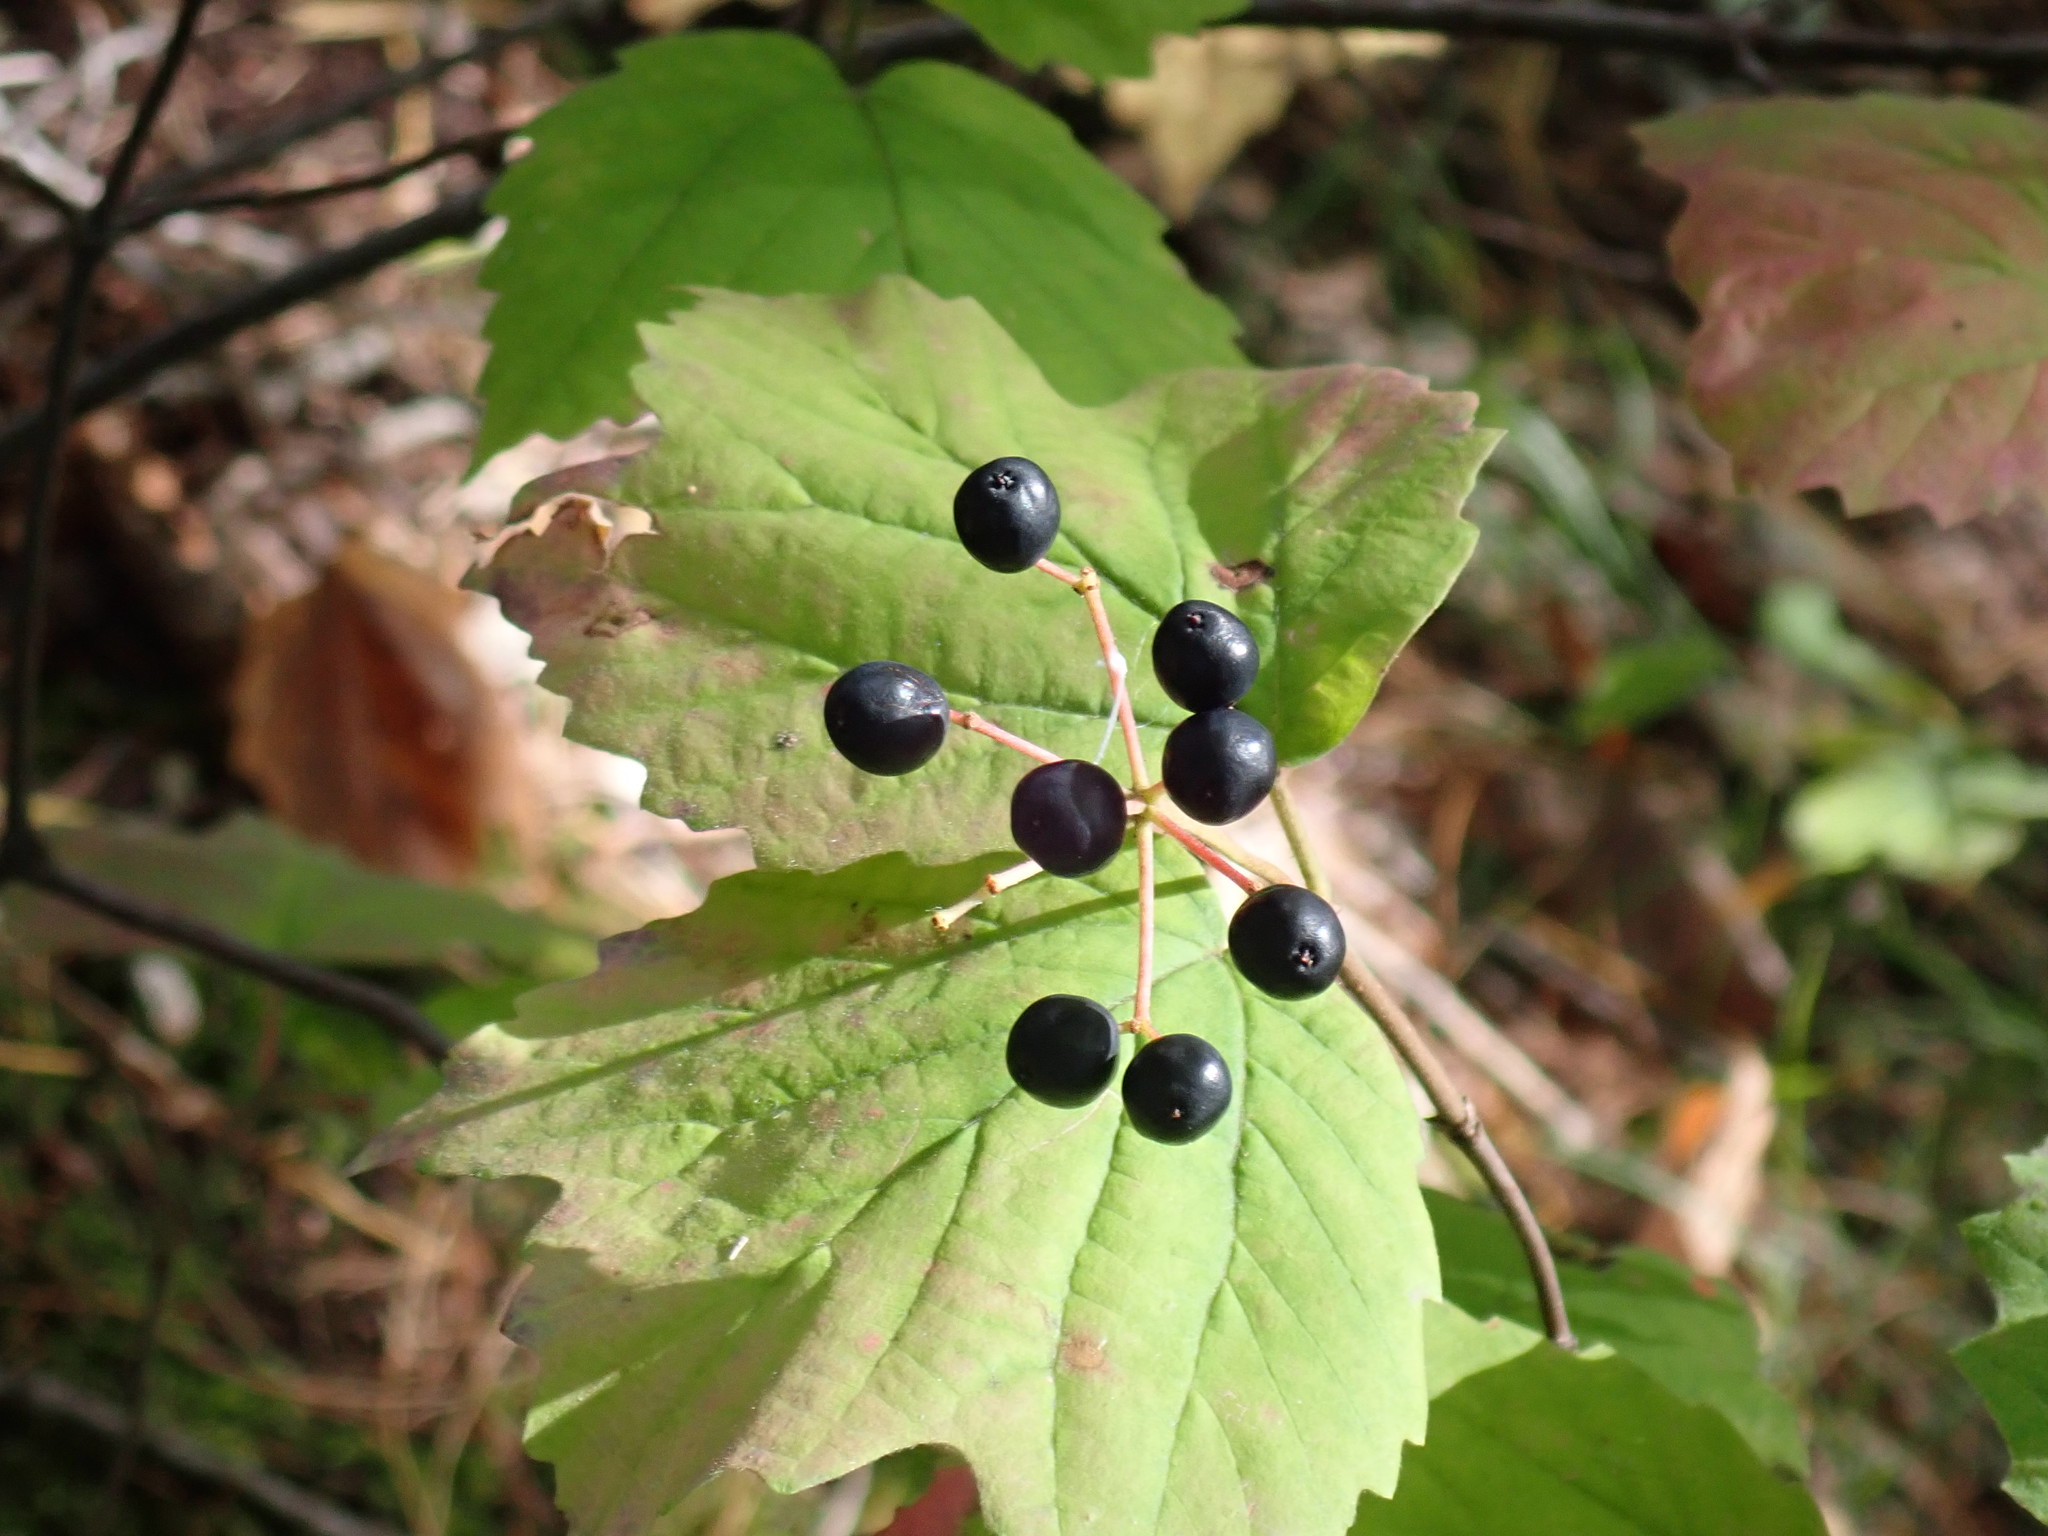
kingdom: Plantae
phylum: Tracheophyta
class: Magnoliopsida
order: Dipsacales
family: Viburnaceae
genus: Viburnum
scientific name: Viburnum acerifolium
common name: Dockmackie
